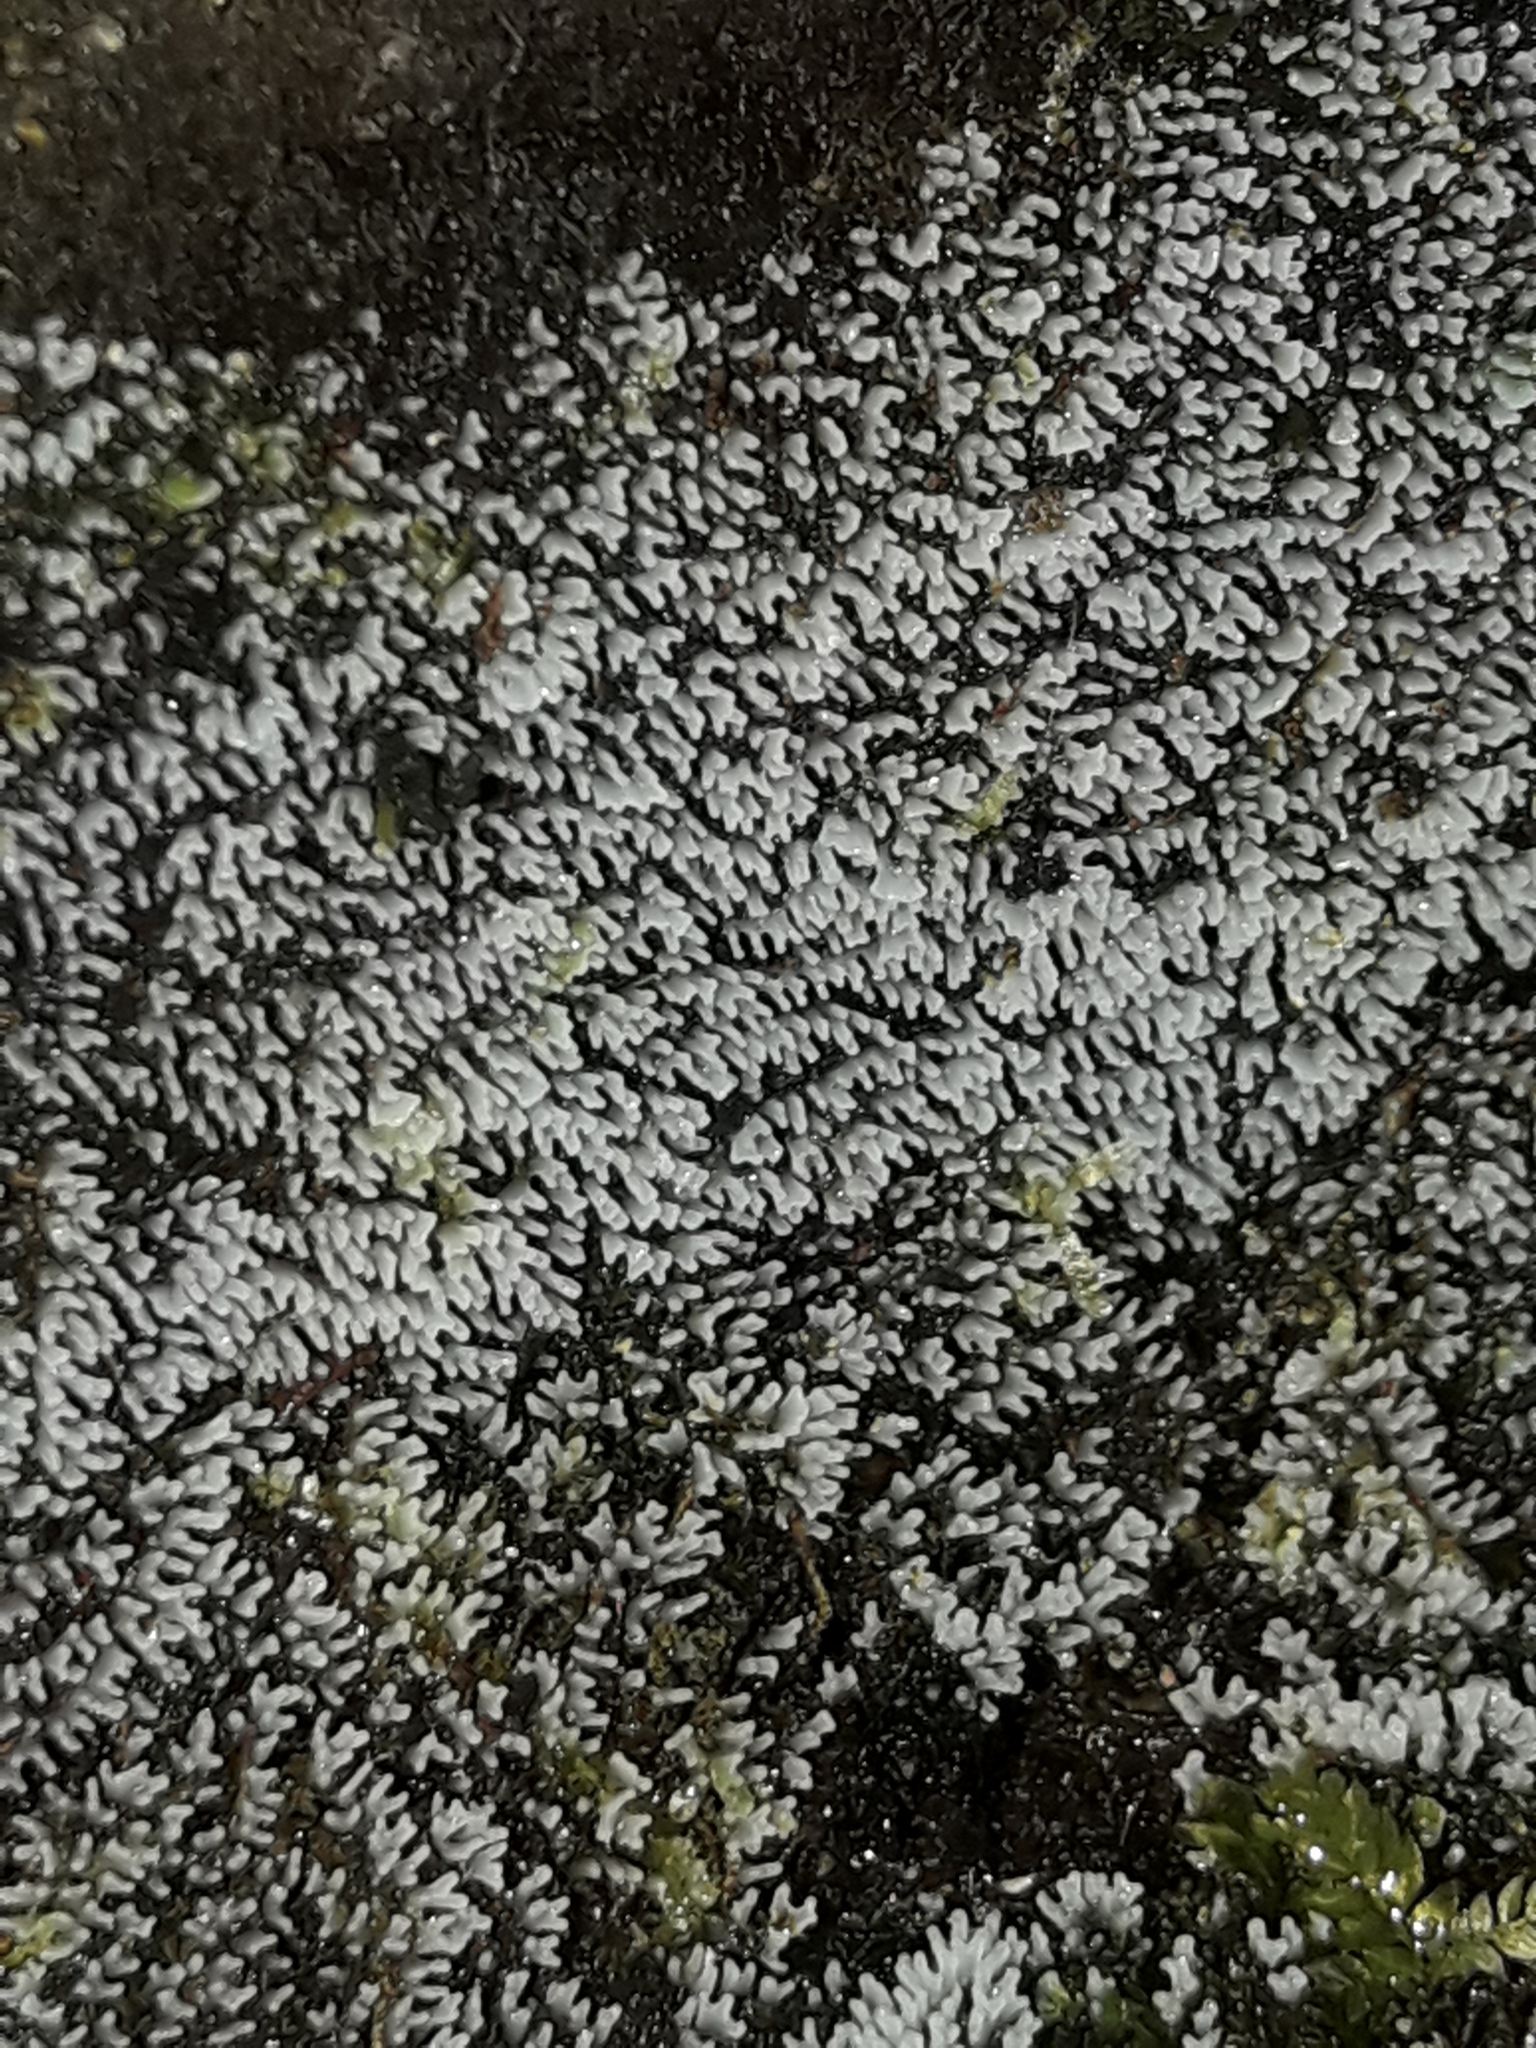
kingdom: Protozoa
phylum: Mycetozoa
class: Protosteliomycetes
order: Ceratiomyxales
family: Ceratiomyxaceae
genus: Ceratiomyxa
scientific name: Ceratiomyxa fruticulosa
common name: Honeycomb coral slime mold
